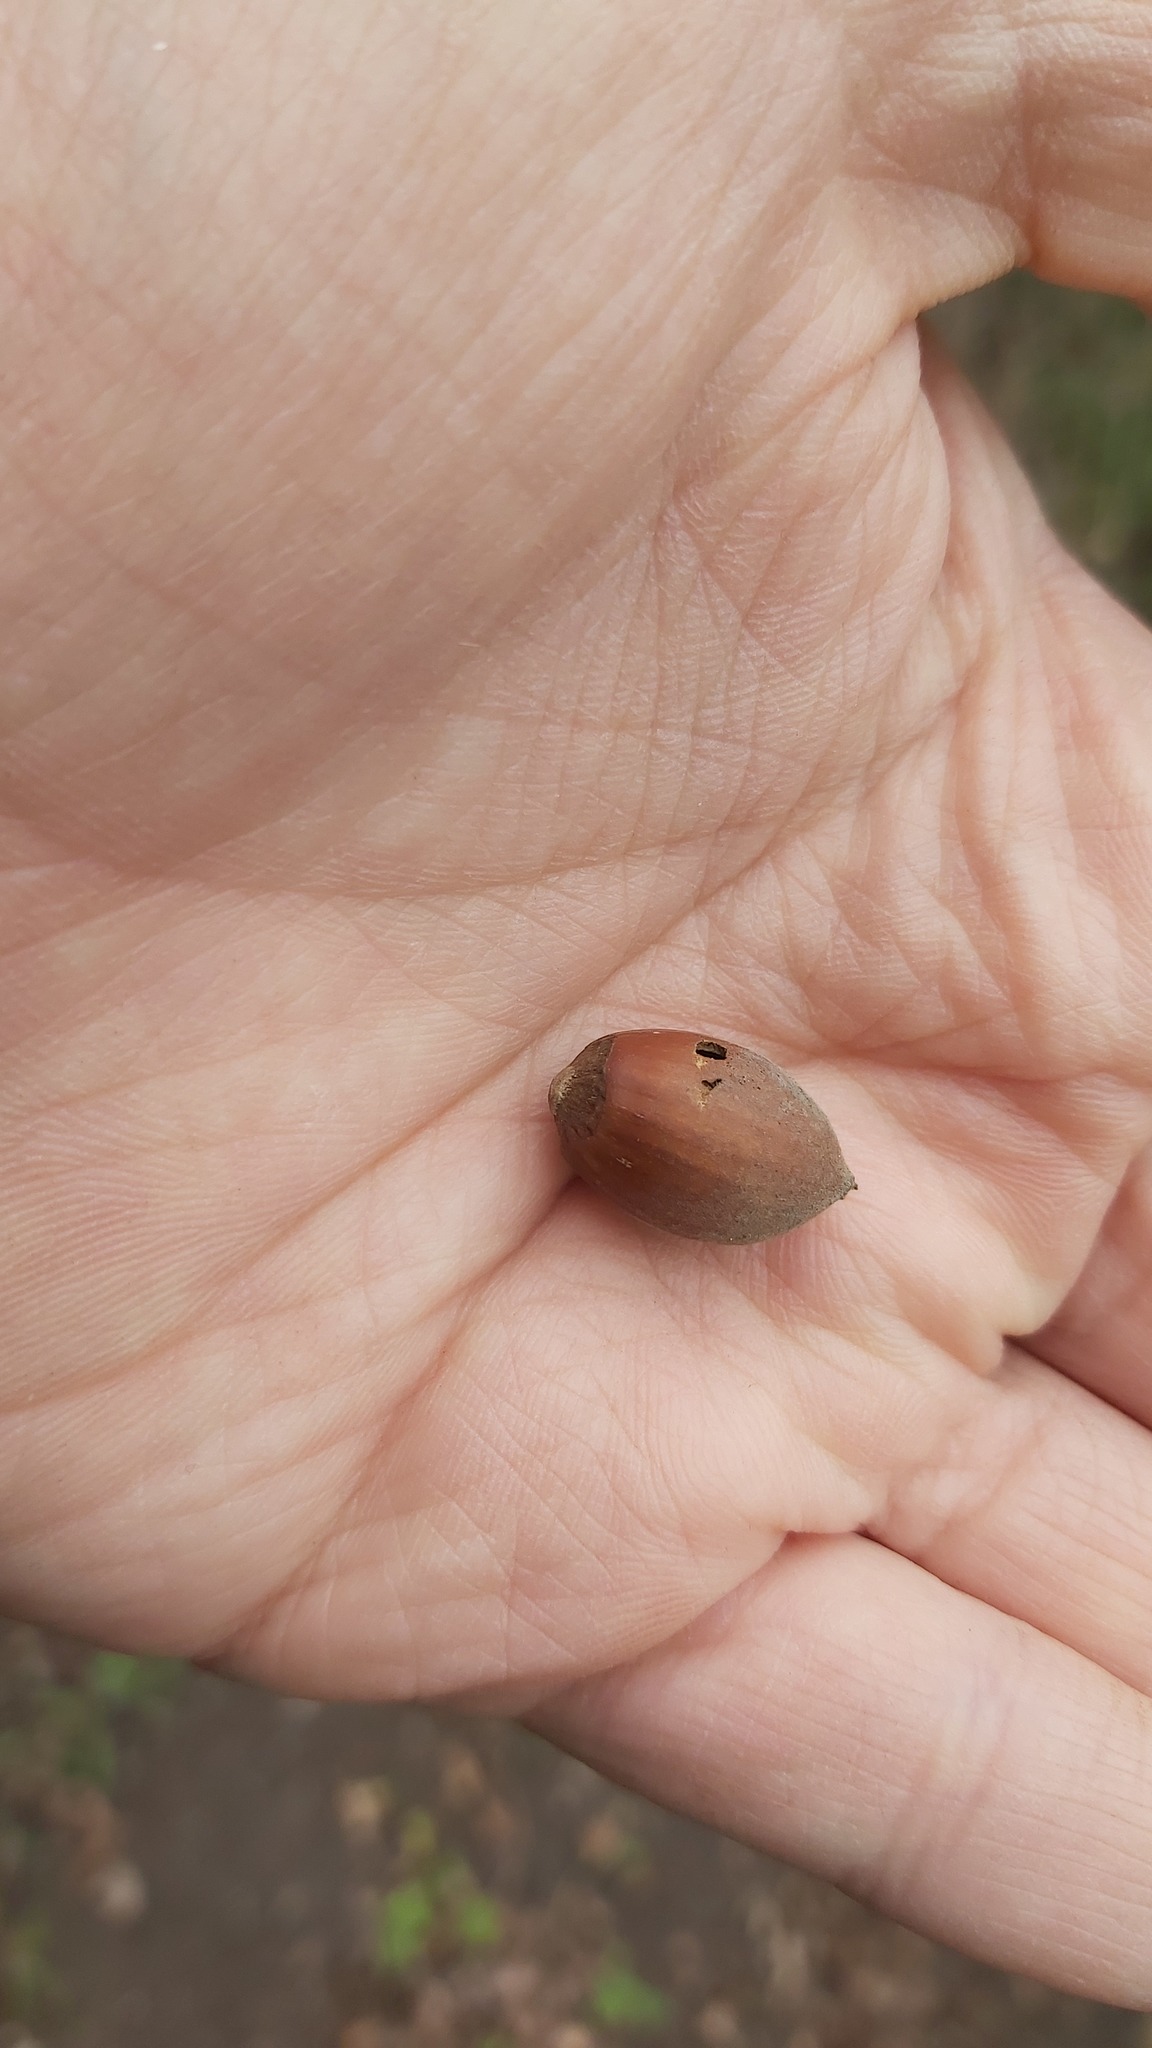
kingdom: Animalia
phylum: Arthropoda
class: Insecta
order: Coleoptera
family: Curculionidae
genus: Curculio
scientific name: Curculio nucum
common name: Nut weevil
